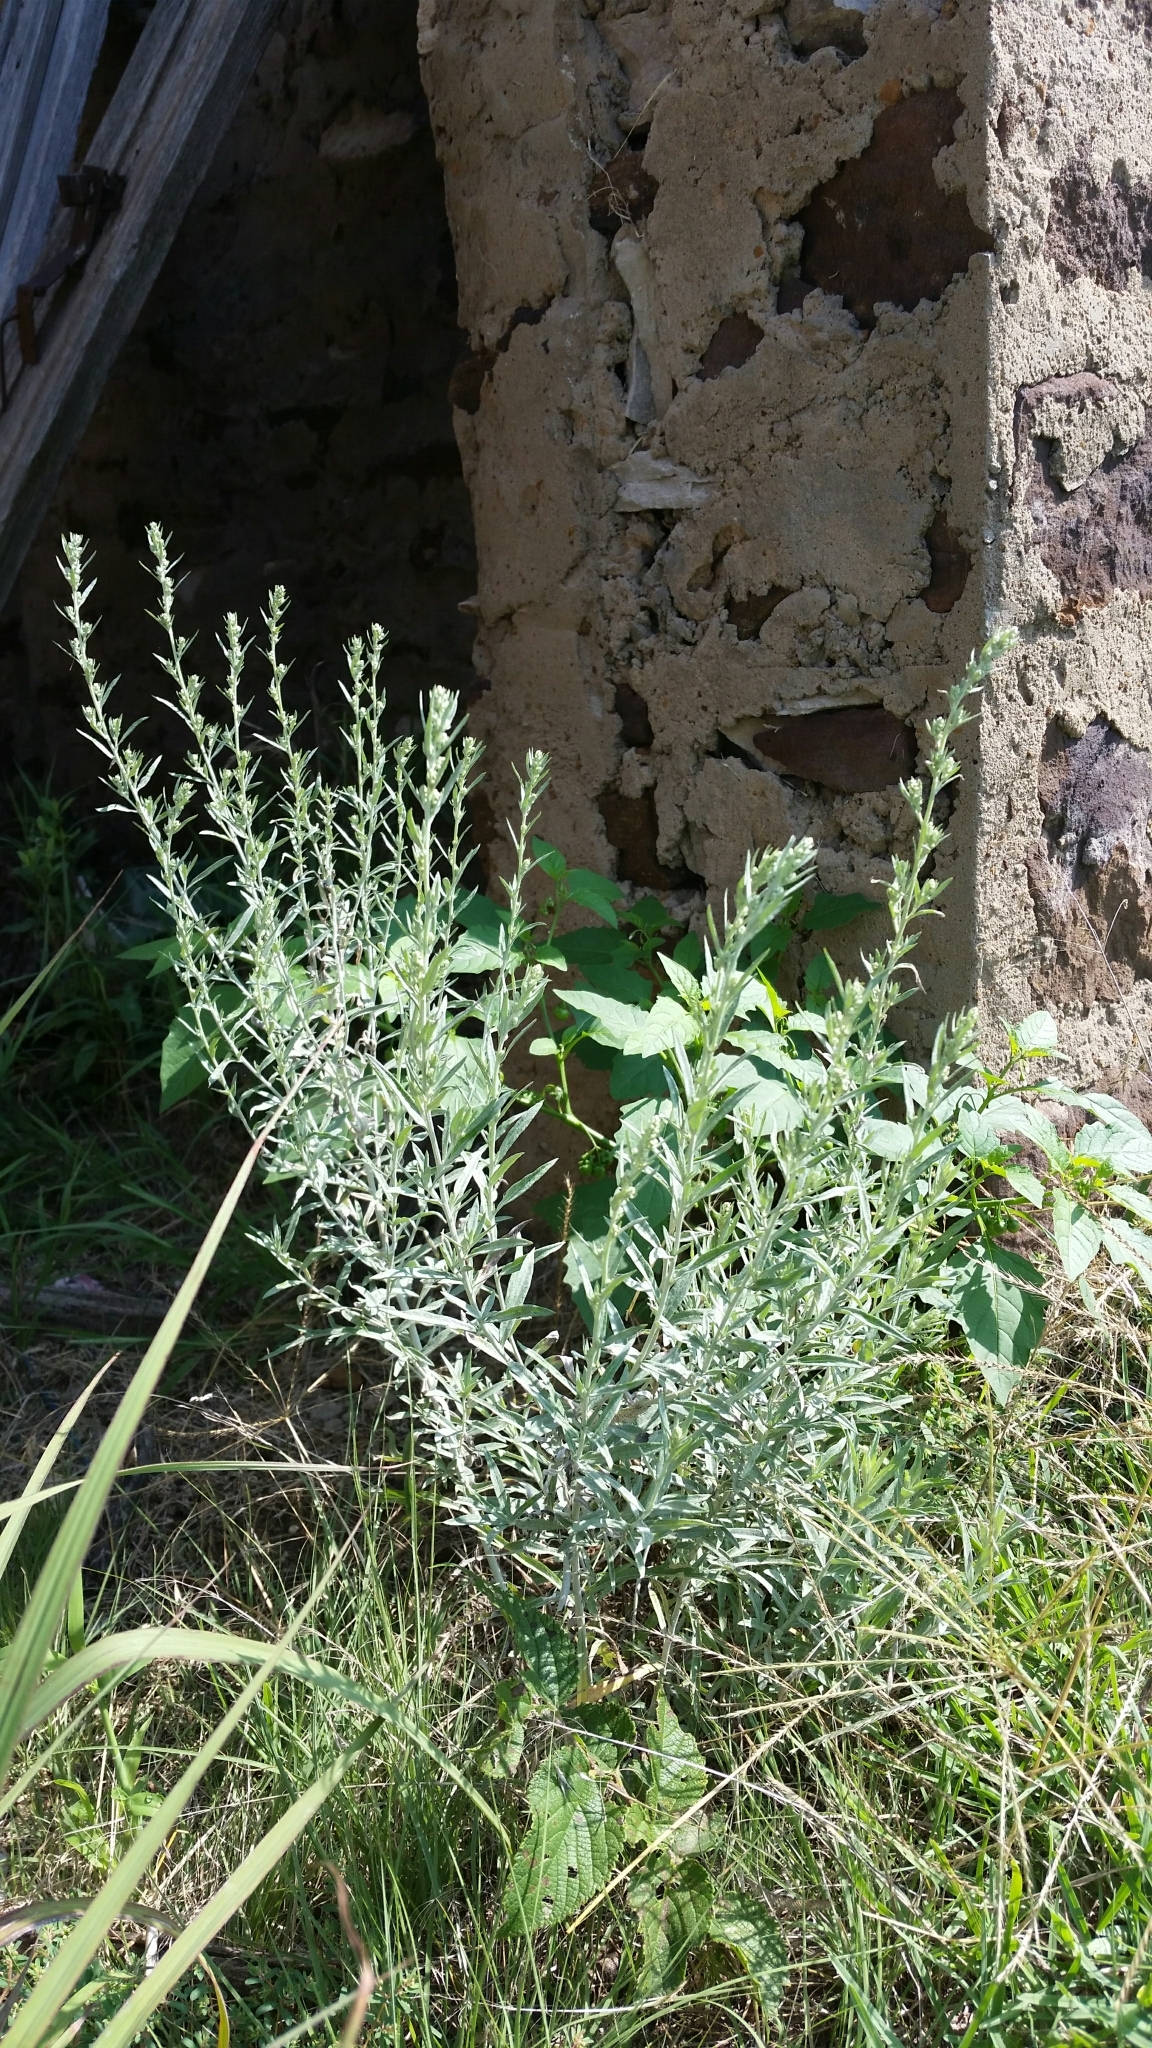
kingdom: Plantae
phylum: Tracheophyta
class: Magnoliopsida
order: Asterales
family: Asteraceae
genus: Artemisia
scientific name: Artemisia ludoviciana
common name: Western mugwort
